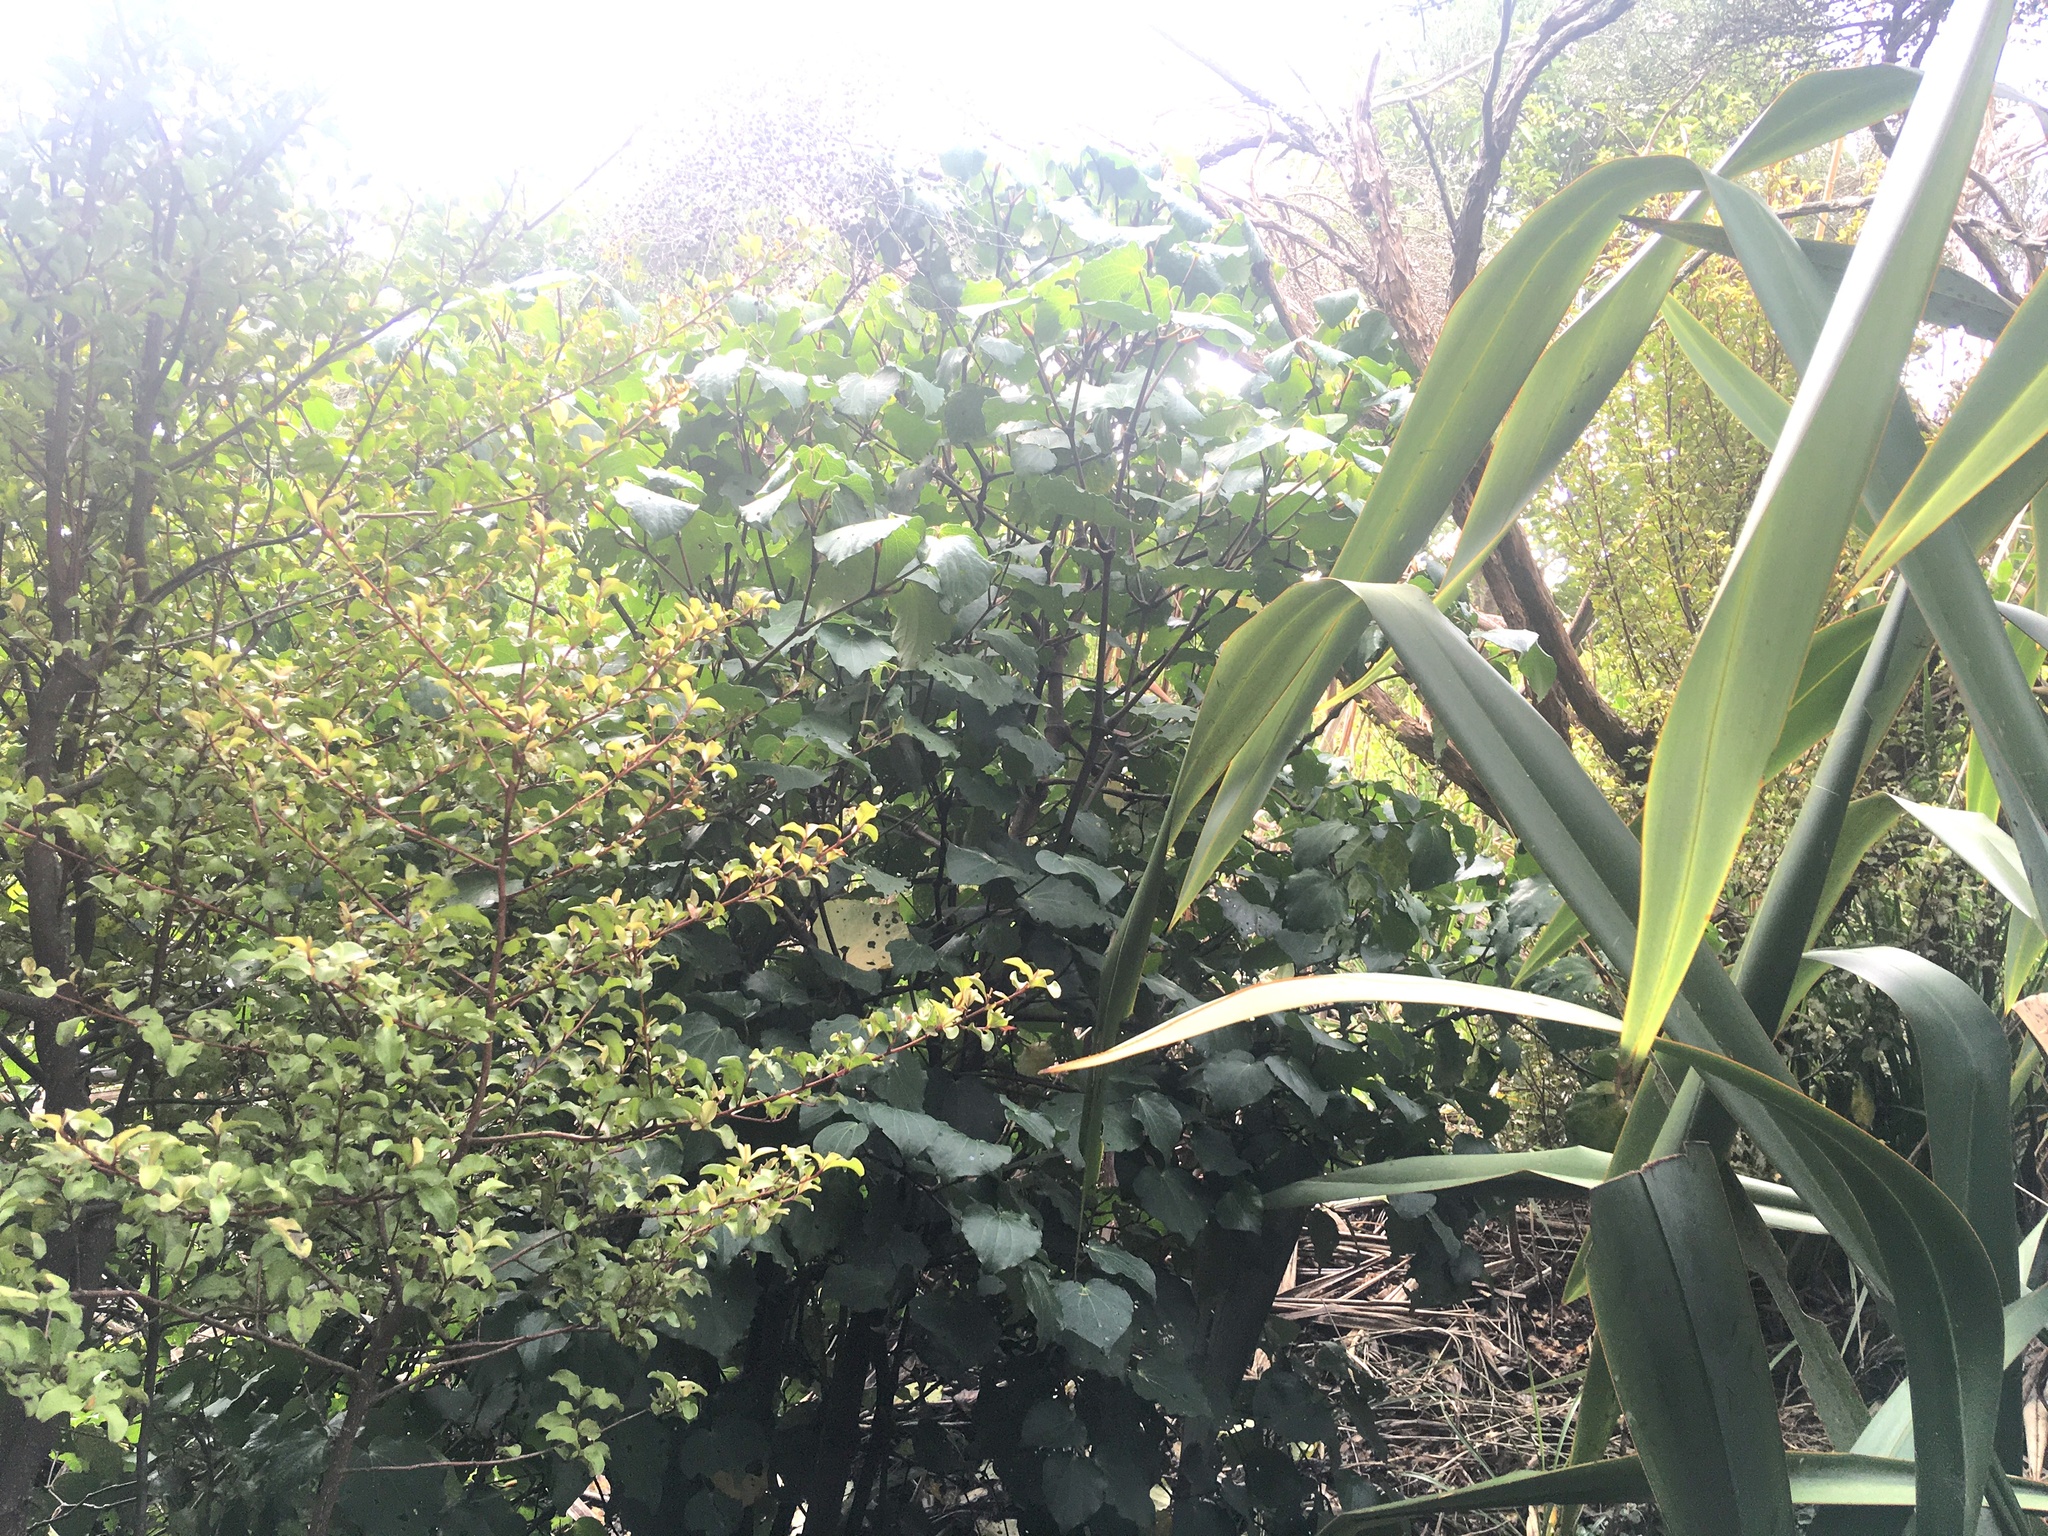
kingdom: Plantae
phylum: Tracheophyta
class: Magnoliopsida
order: Piperales
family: Piperaceae
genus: Macropiper
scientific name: Macropiper excelsum
